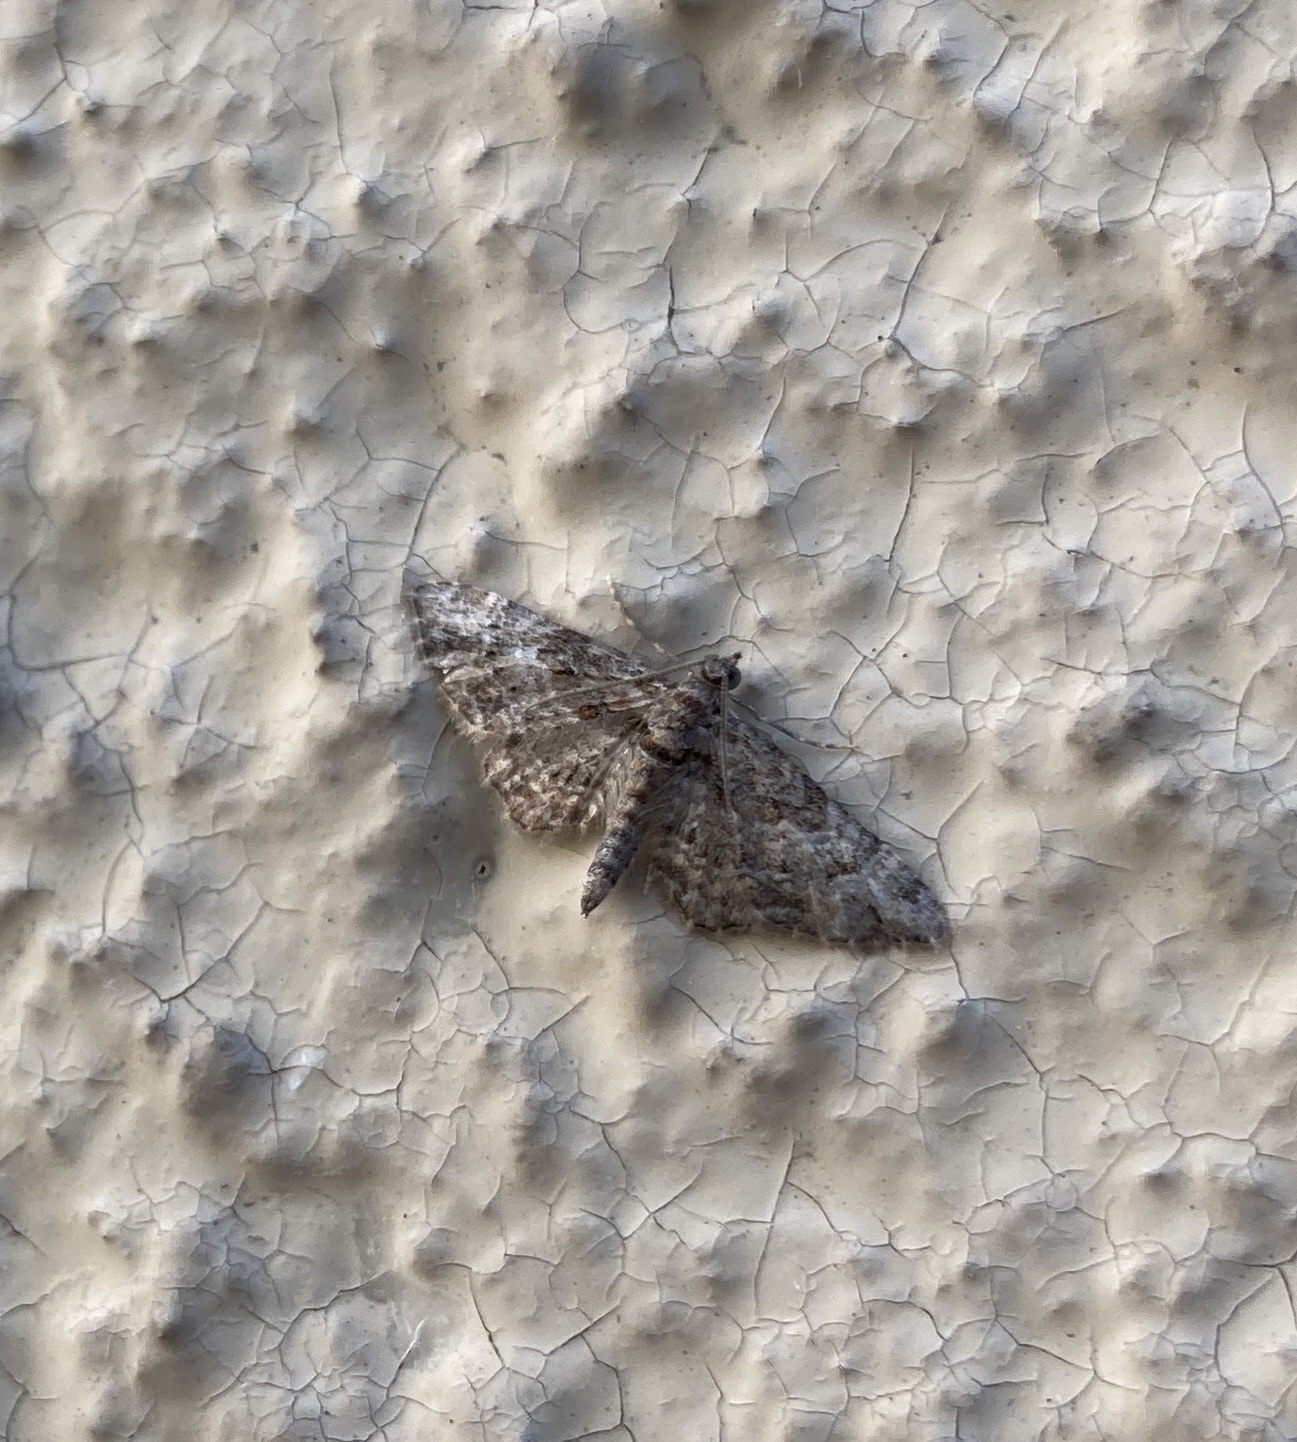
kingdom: Animalia
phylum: Arthropoda
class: Insecta
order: Lepidoptera
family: Geometridae
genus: Gymnoscelis
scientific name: Gymnoscelis rufifasciata
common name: Double-striped pug
